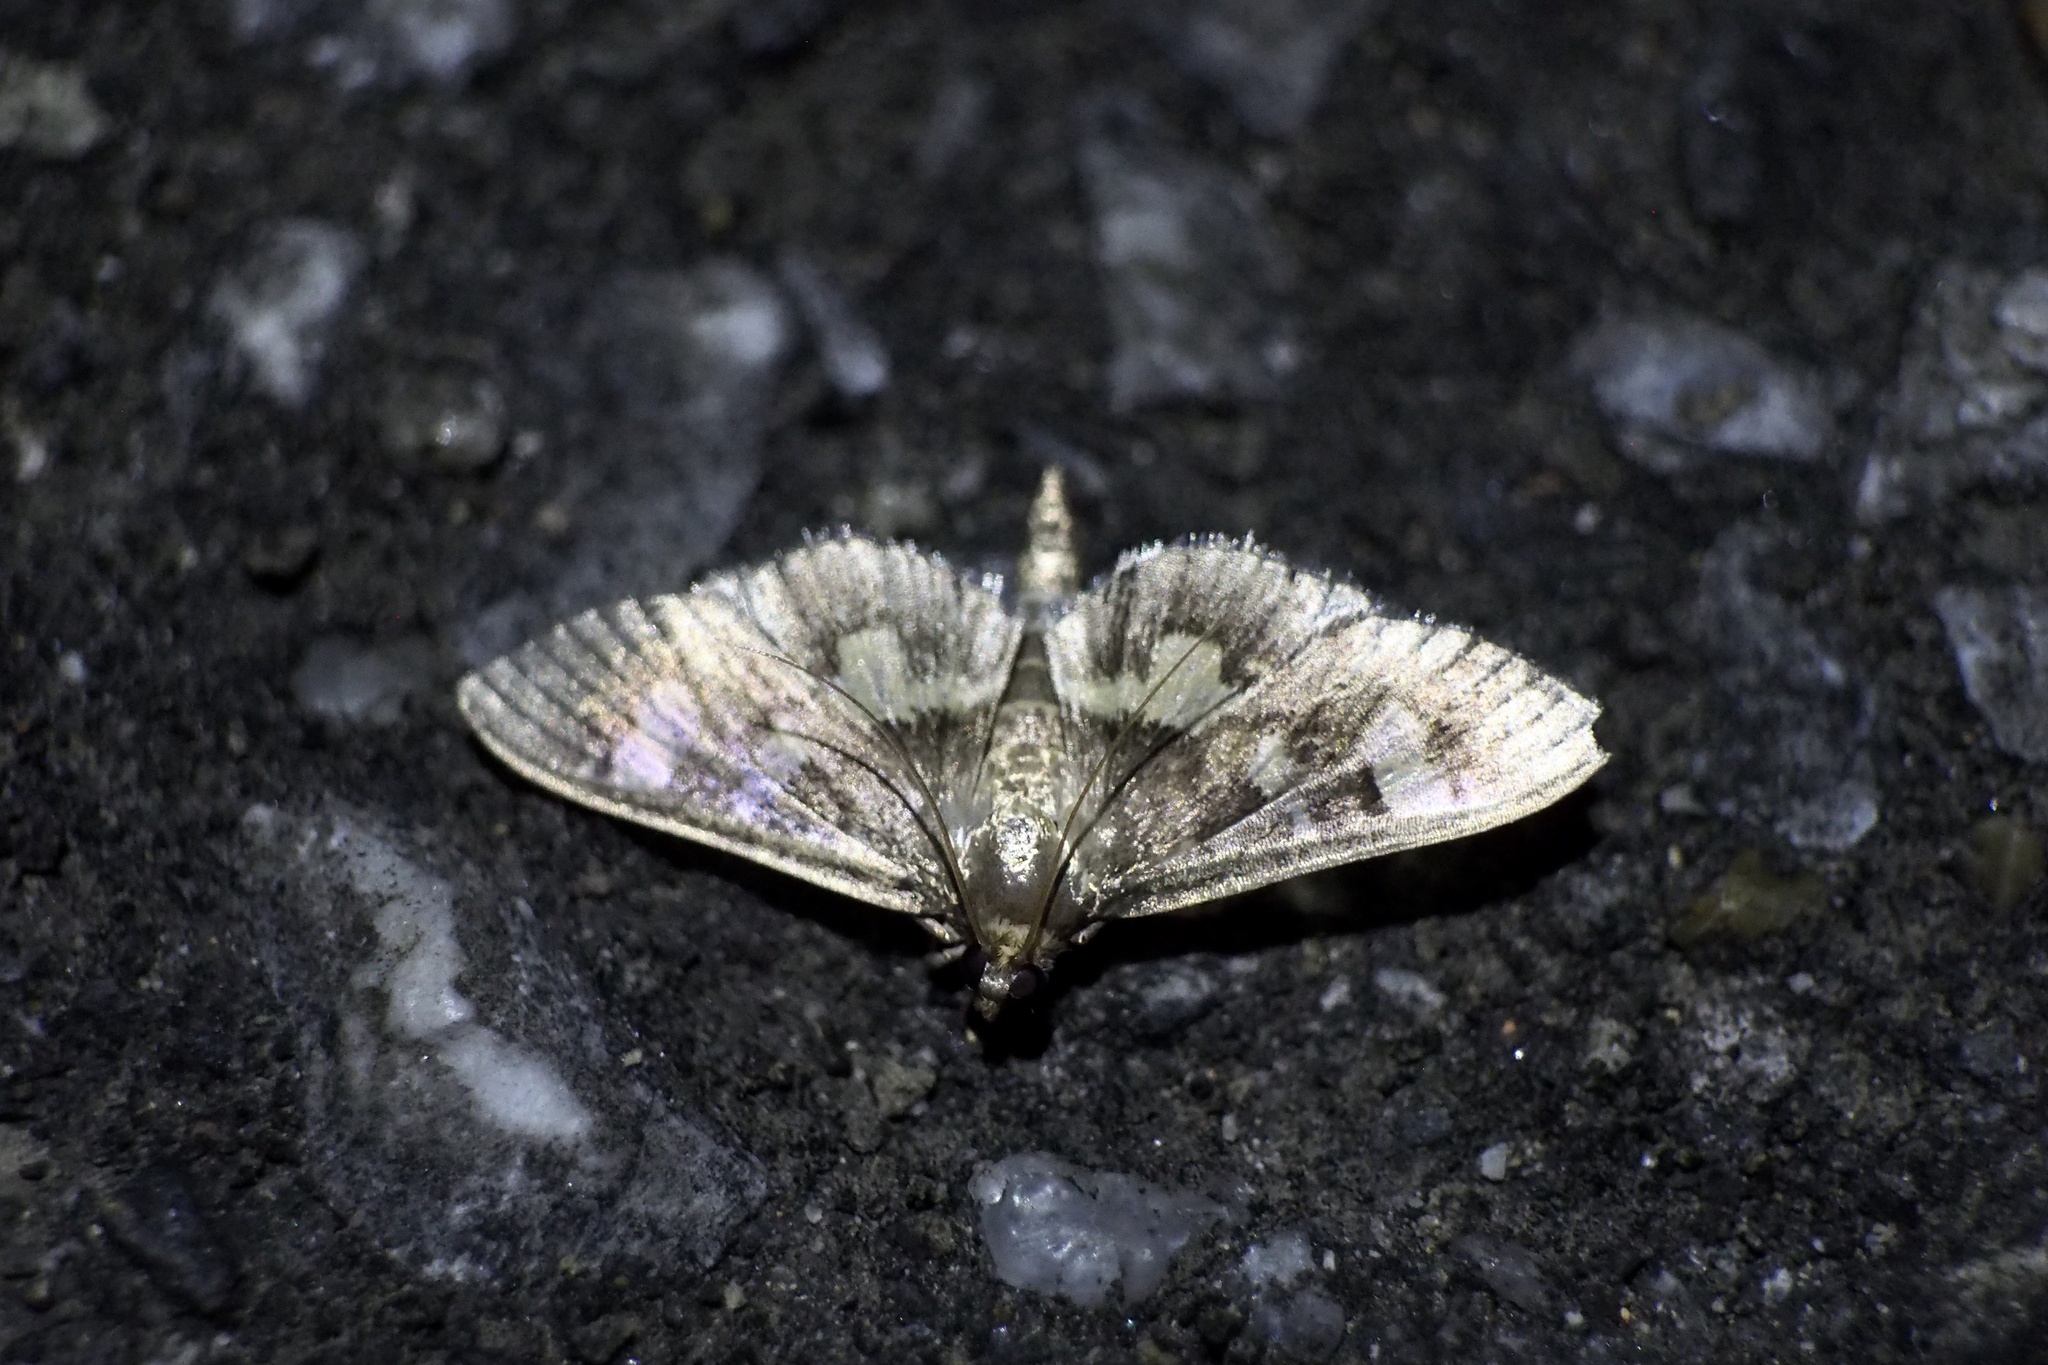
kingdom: Animalia
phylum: Arthropoda
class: Insecta
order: Lepidoptera
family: Crambidae
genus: Uresiphita
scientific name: Uresiphita tricolor
